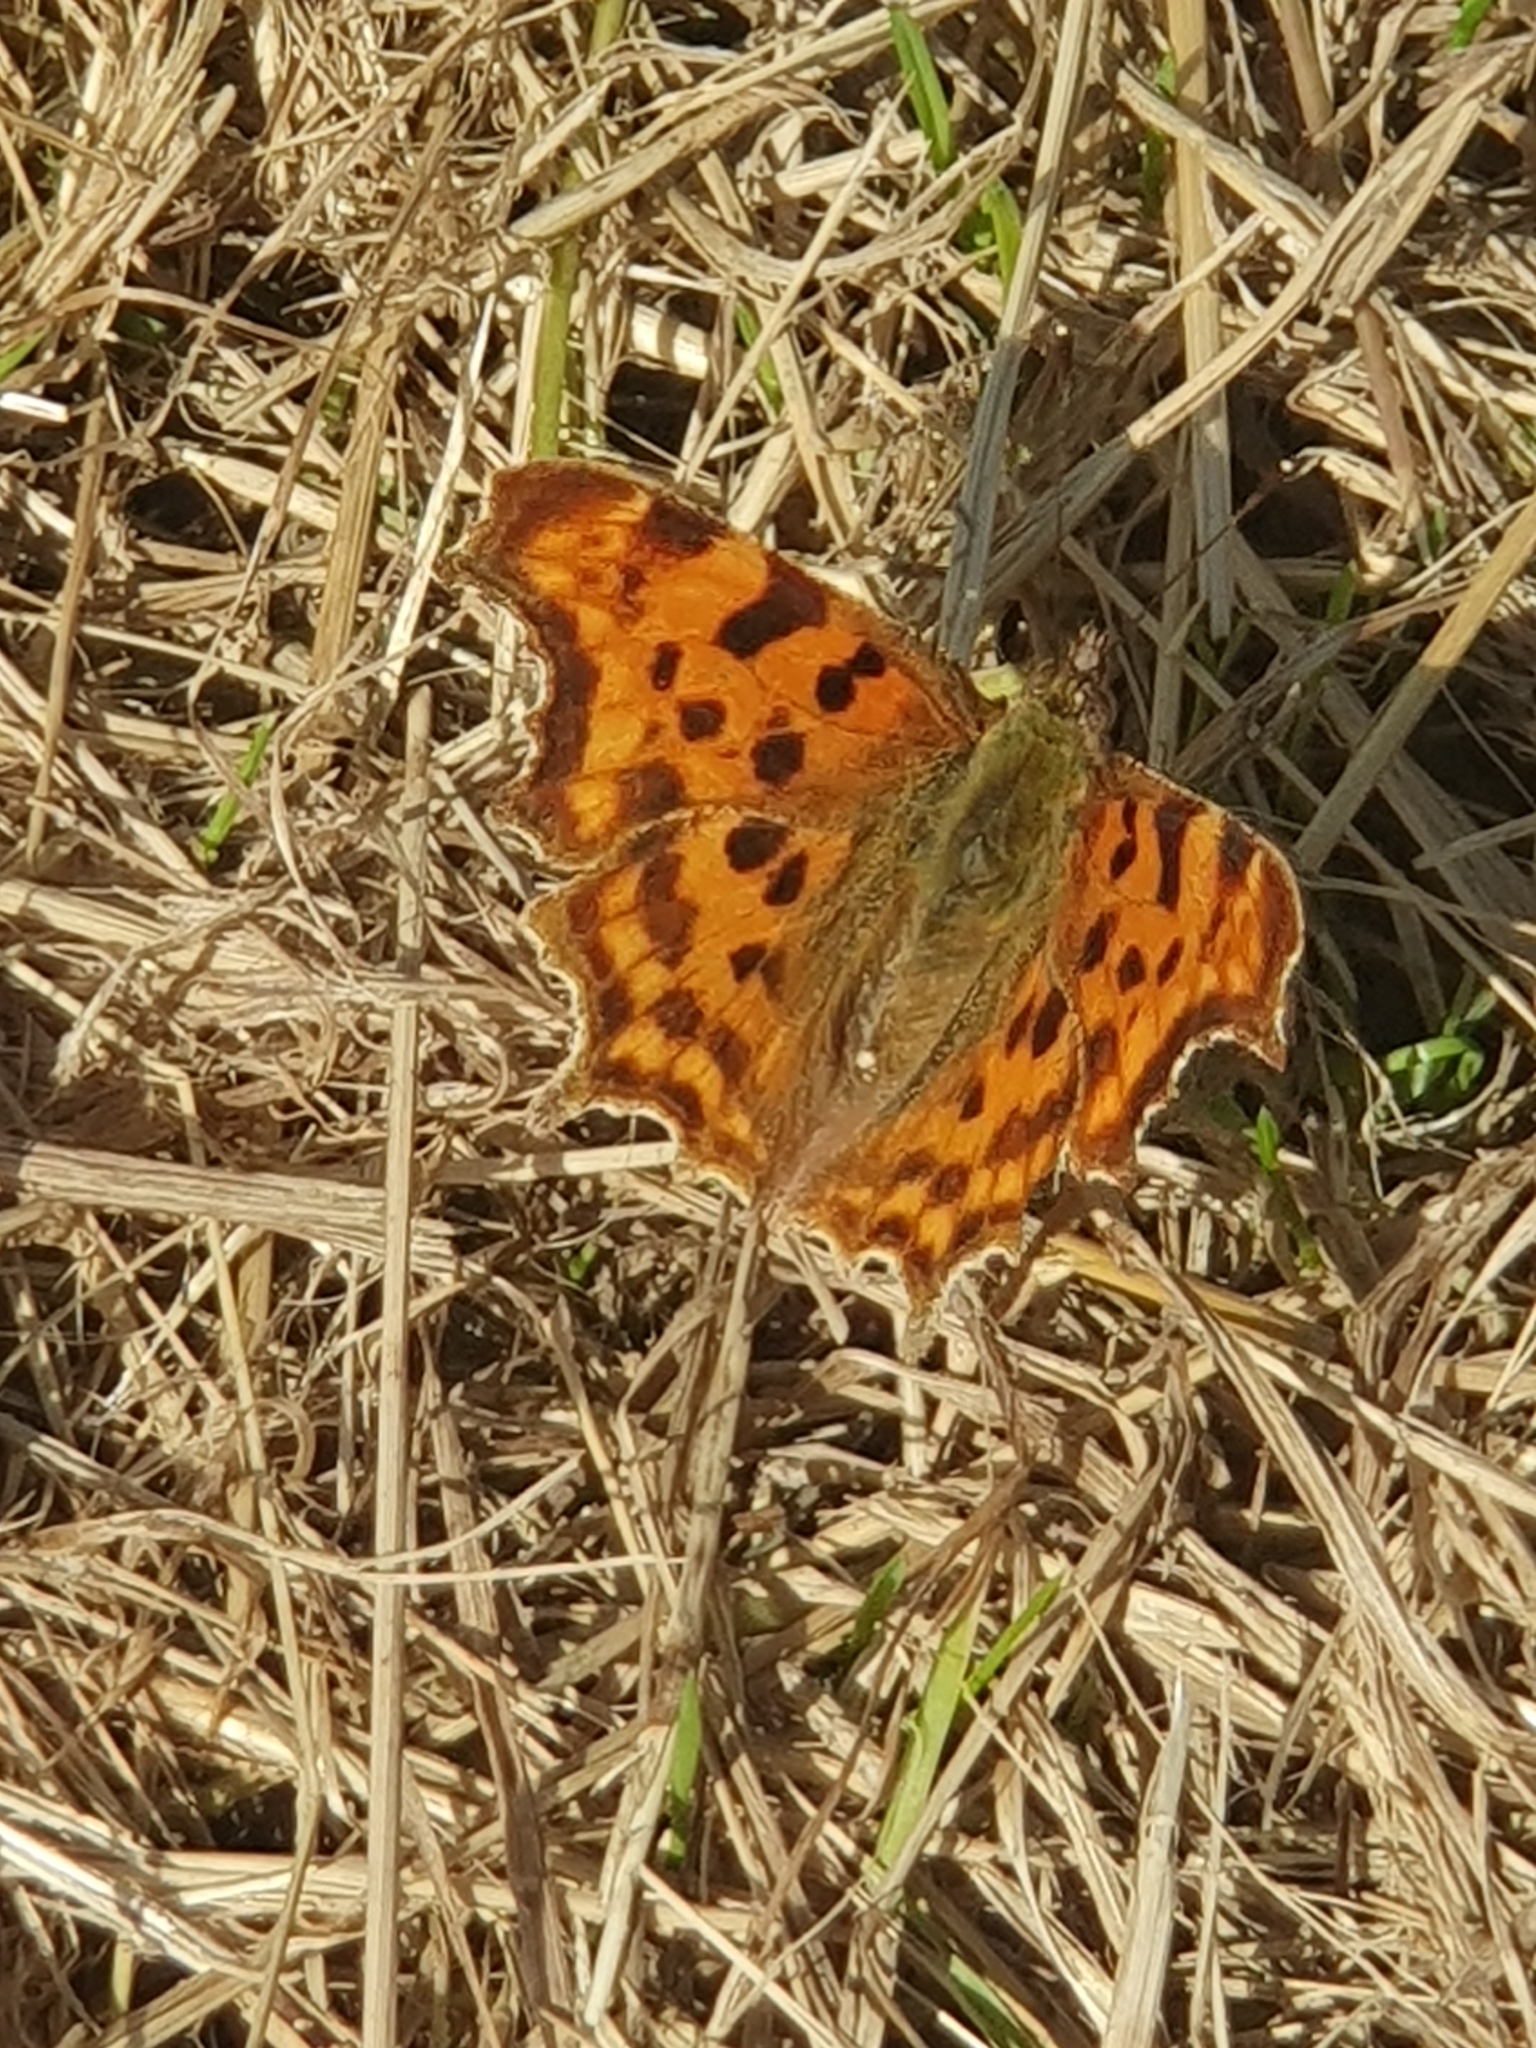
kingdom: Animalia
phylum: Arthropoda
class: Insecta
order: Lepidoptera
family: Nymphalidae
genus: Polygonia
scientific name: Polygonia c-album
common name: Comma
